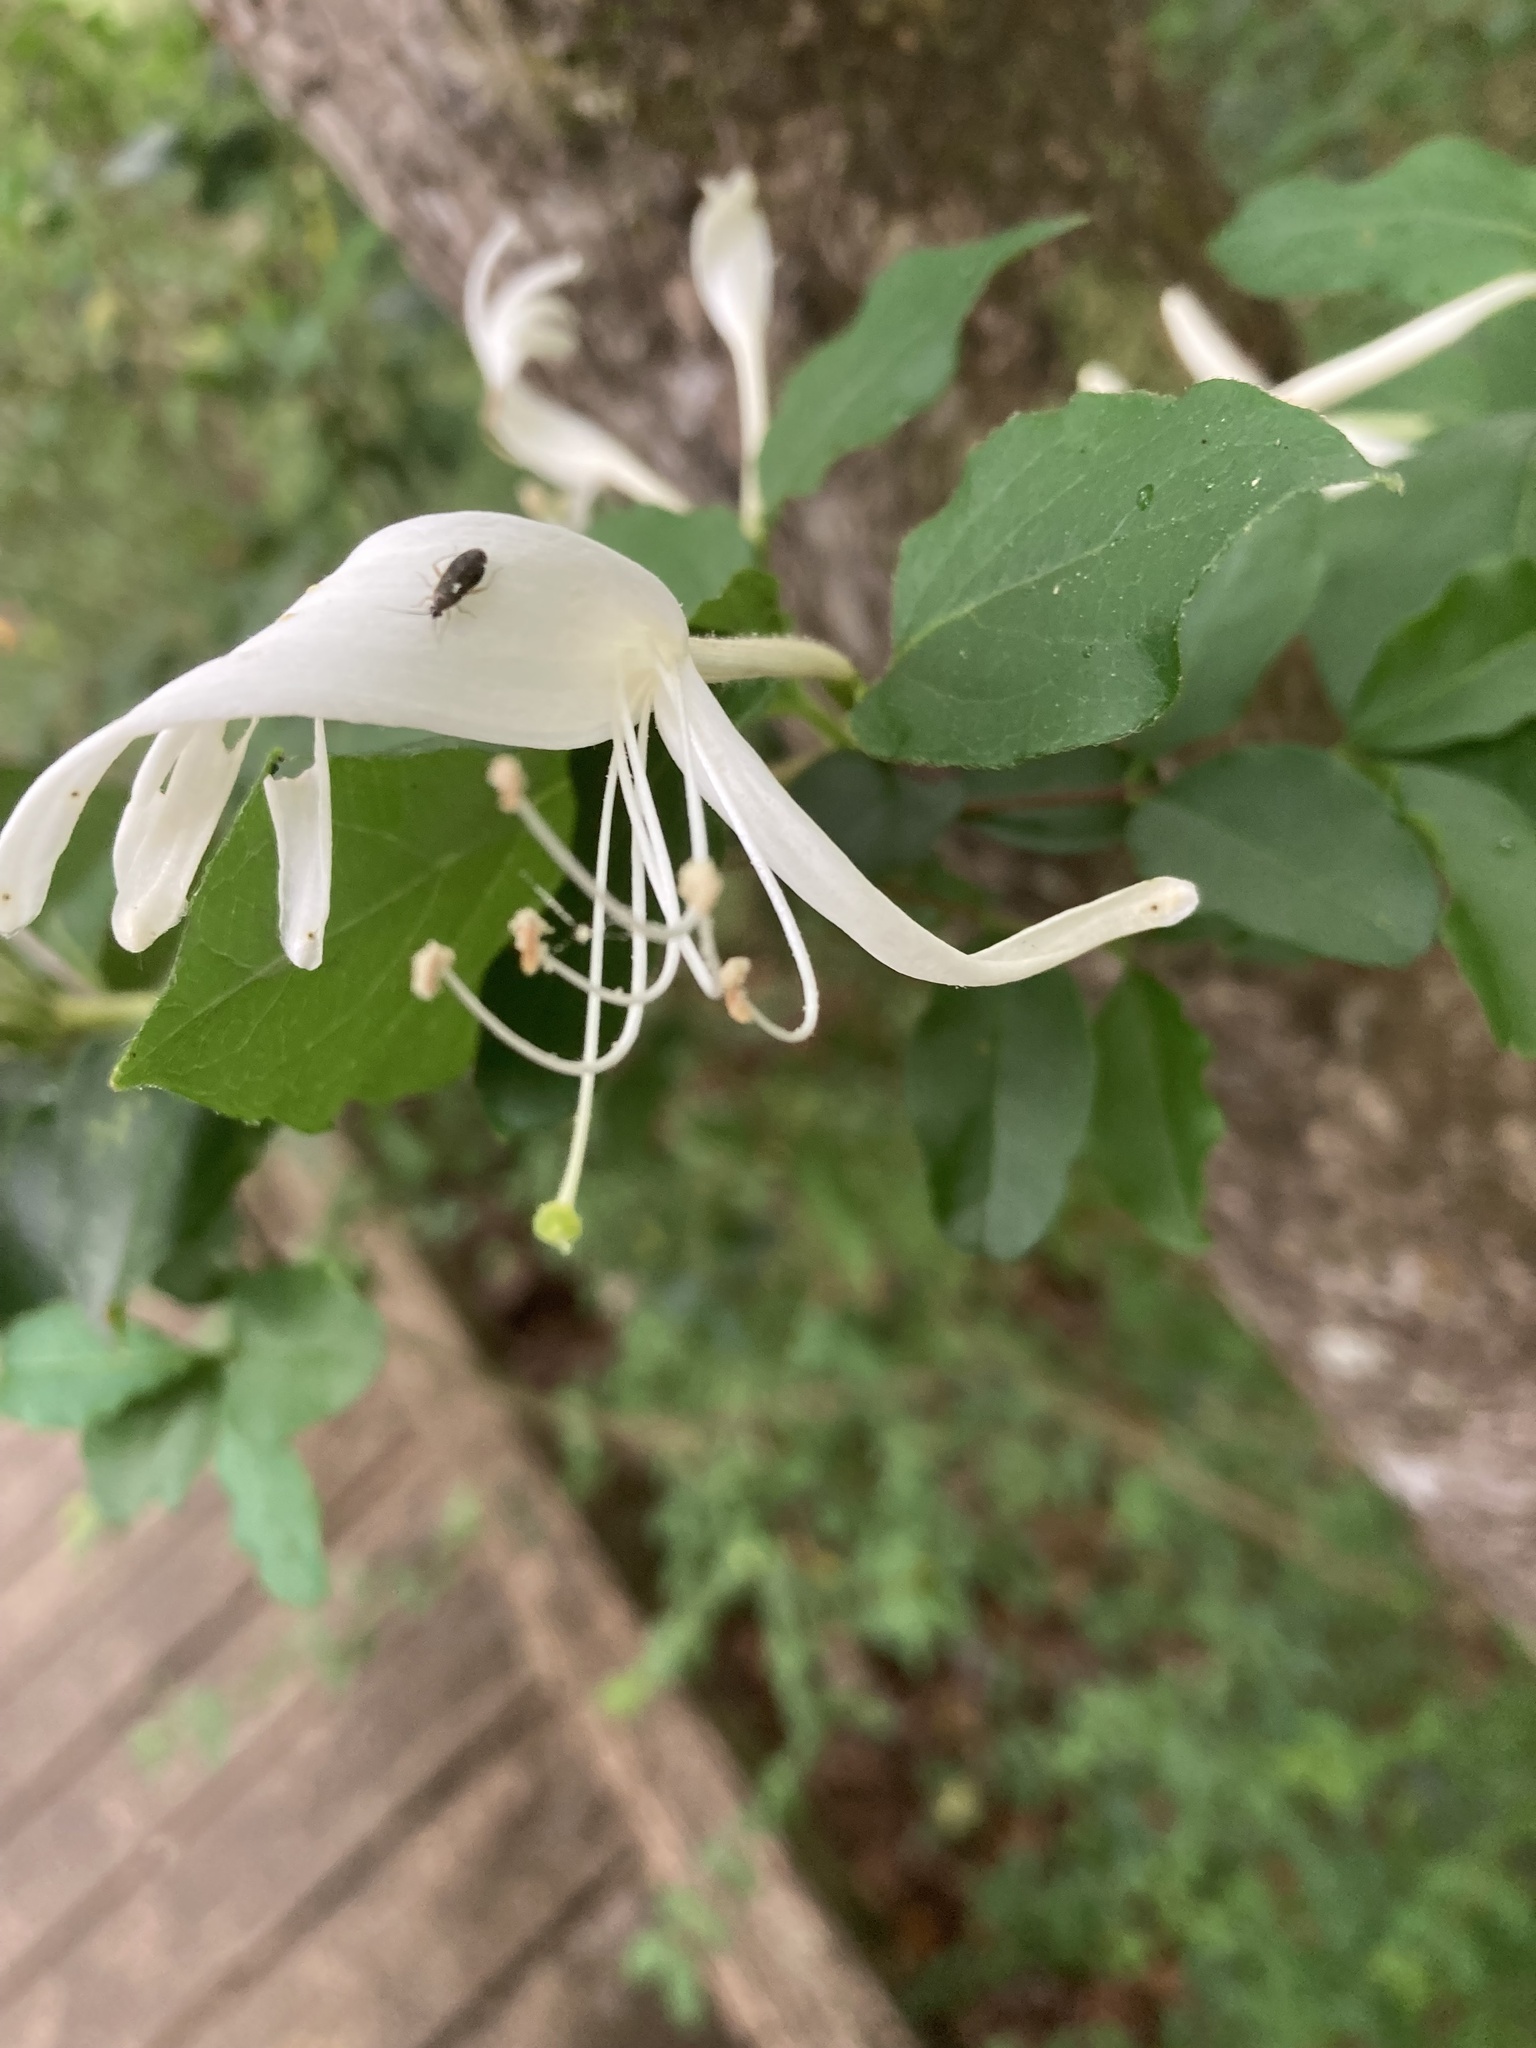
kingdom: Plantae
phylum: Tracheophyta
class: Magnoliopsida
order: Dipsacales
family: Caprifoliaceae
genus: Lonicera
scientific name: Lonicera japonica
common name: Japanese honeysuckle
